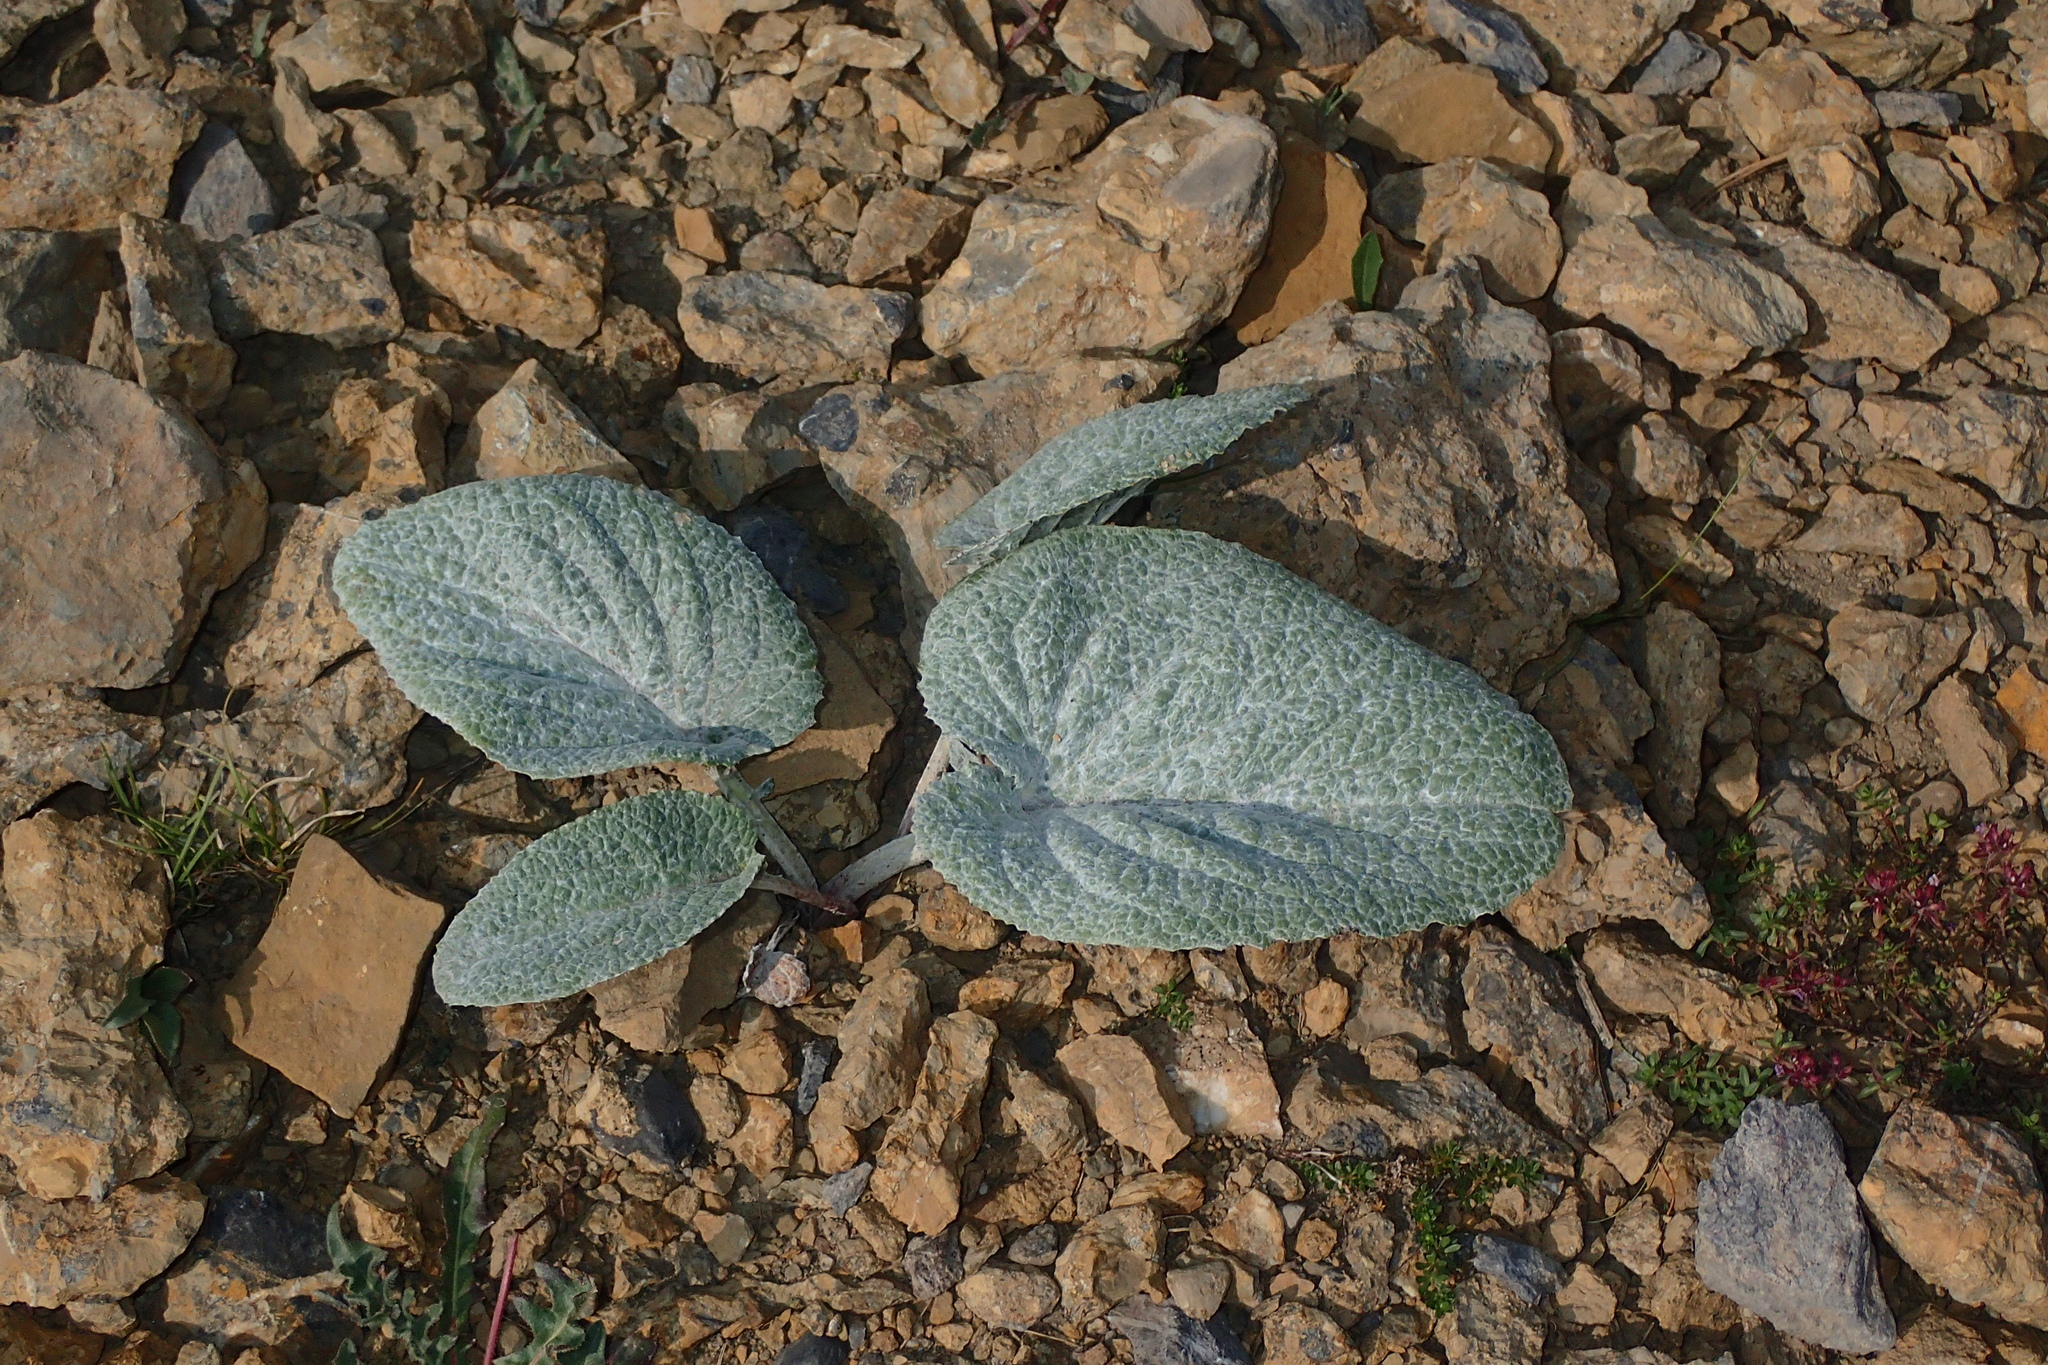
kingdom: Plantae
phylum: Tracheophyta
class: Magnoliopsida
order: Asterales
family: Asteraceae
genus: Berardia
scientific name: Berardia lanuginosa
